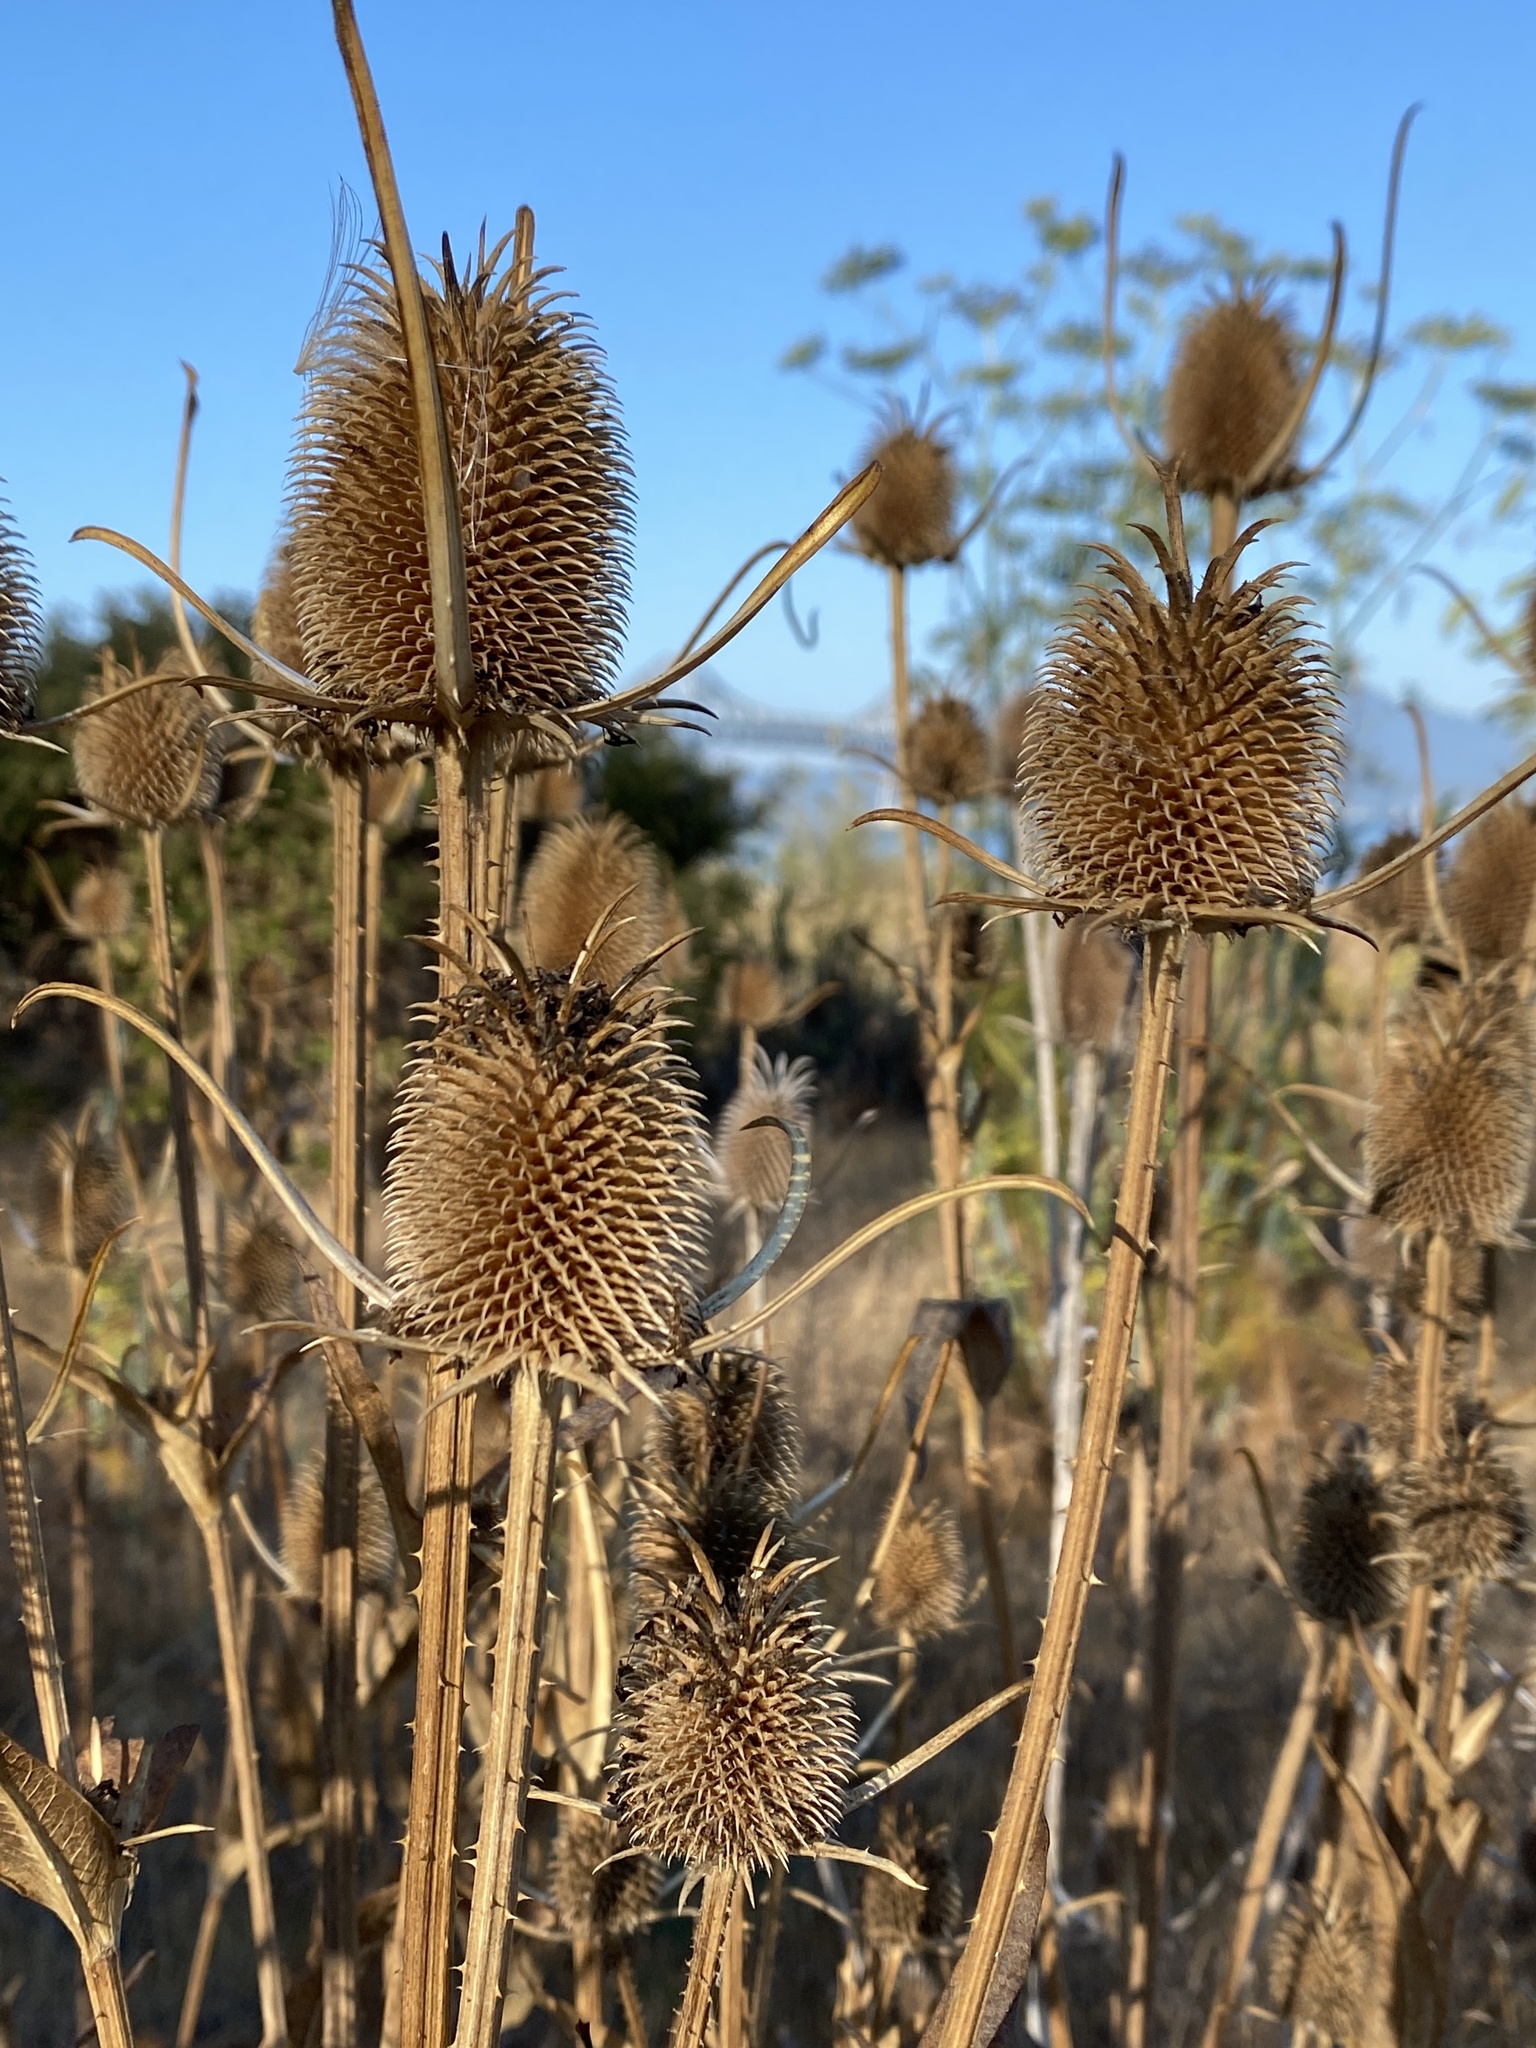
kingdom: Plantae
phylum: Tracheophyta
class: Magnoliopsida
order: Dipsacales
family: Caprifoliaceae
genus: Dipsacus
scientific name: Dipsacus sativus
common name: Fuller's teasel
